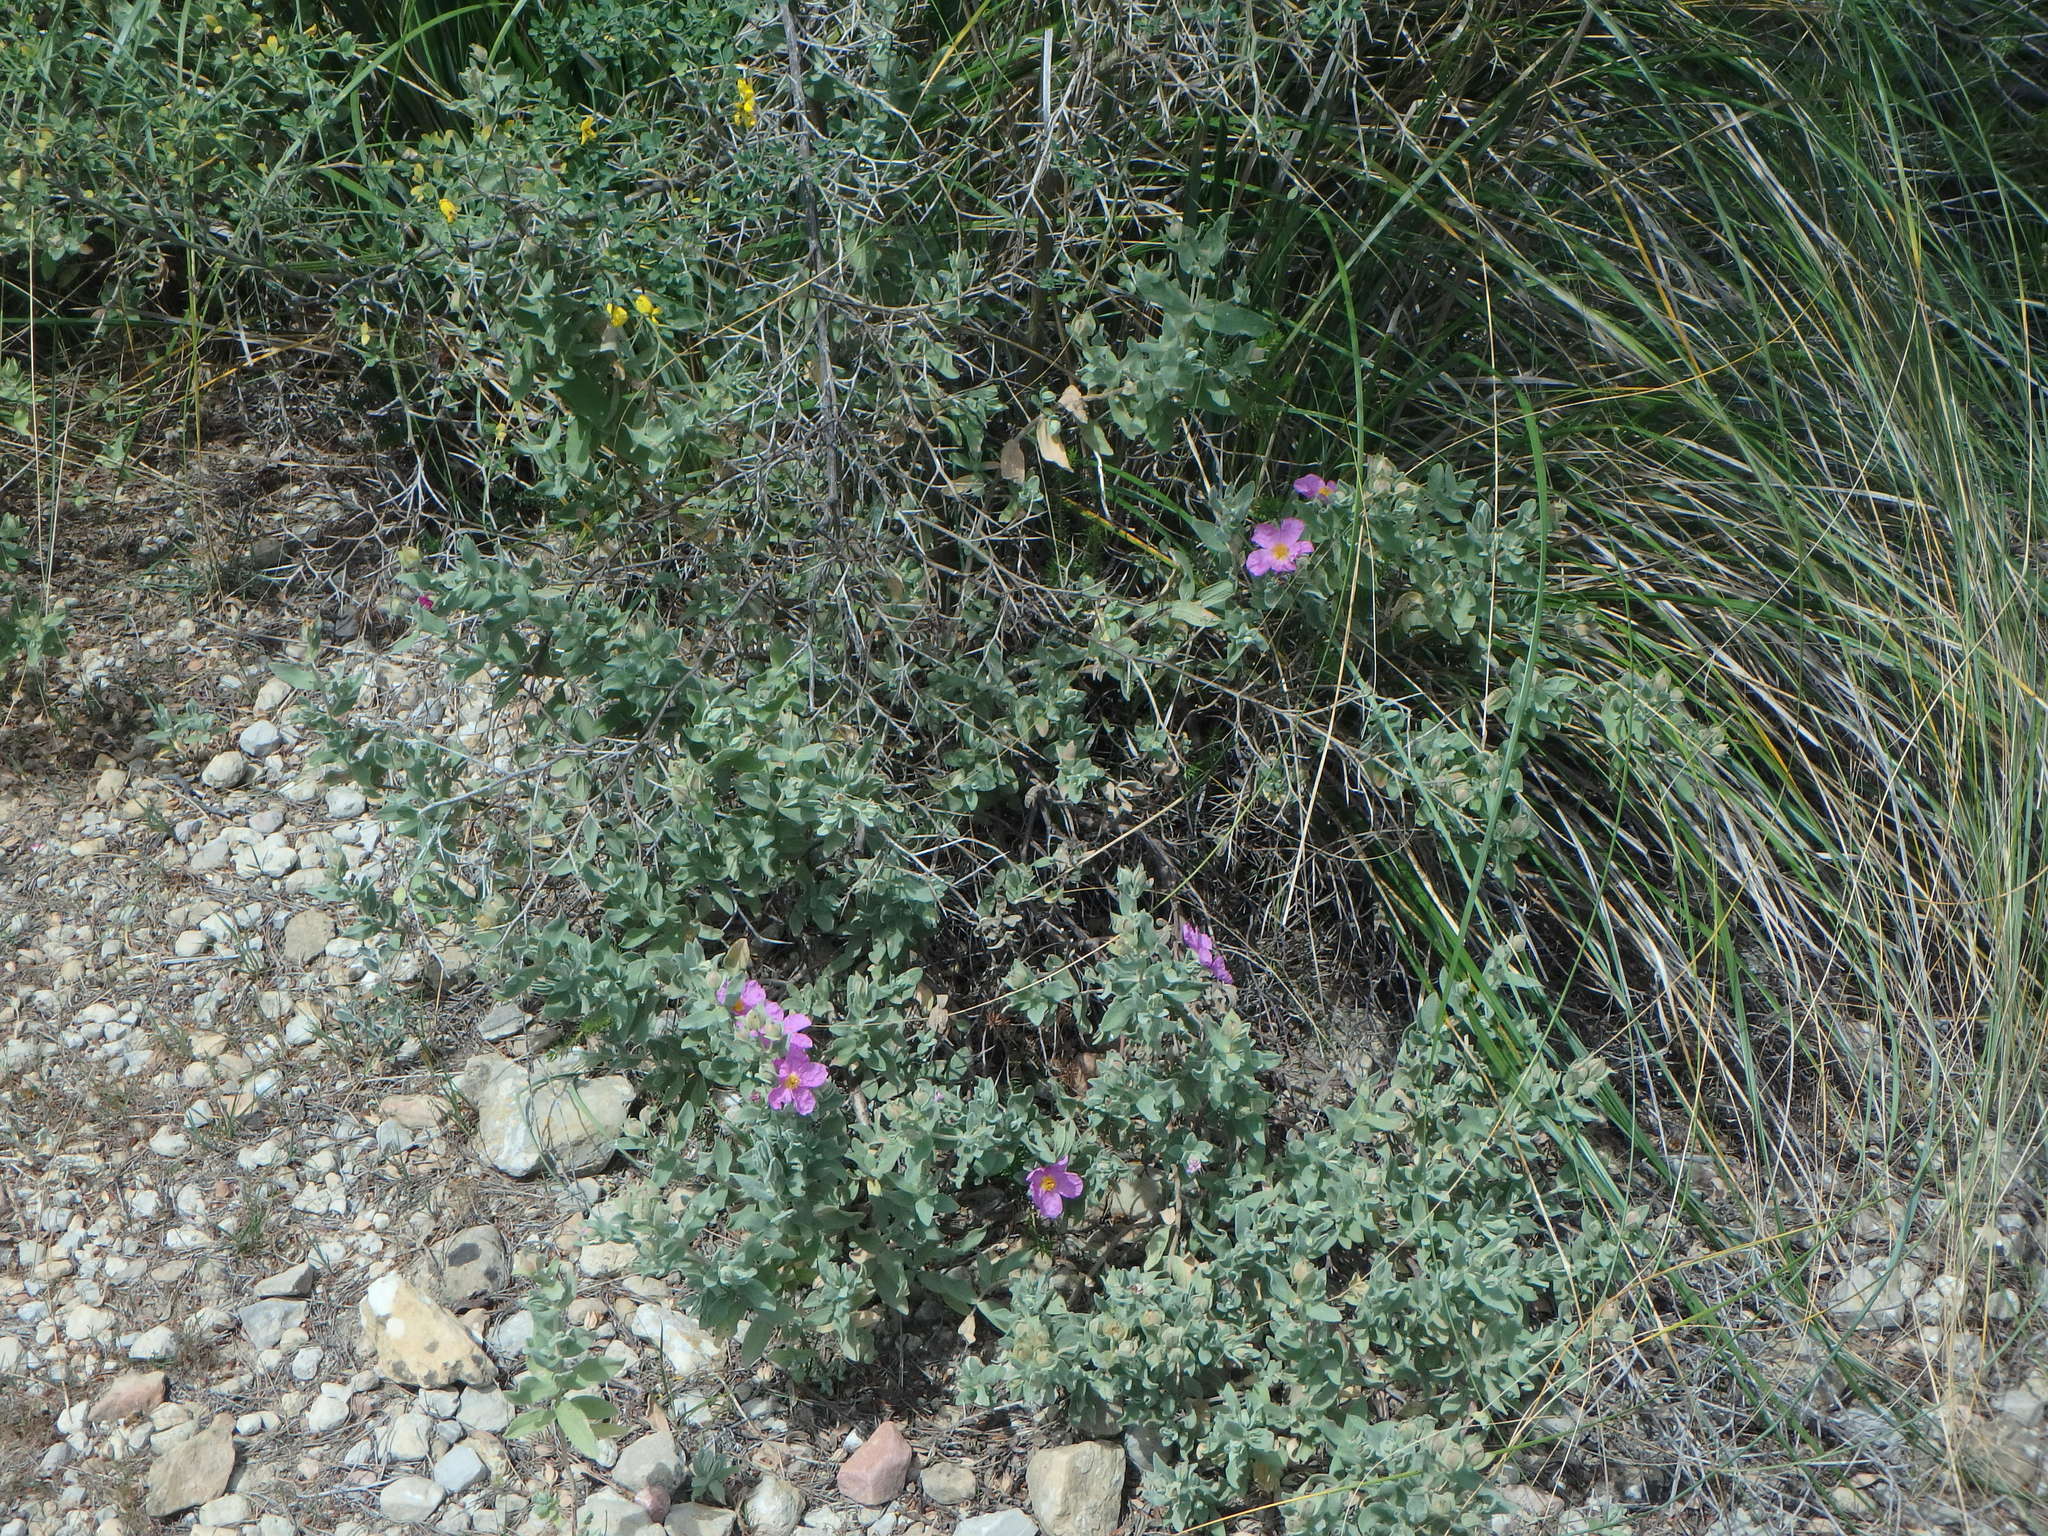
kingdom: Plantae
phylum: Tracheophyta
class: Magnoliopsida
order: Malvales
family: Cistaceae
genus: Cistus
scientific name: Cistus albidus
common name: White-leaf rock-rose
